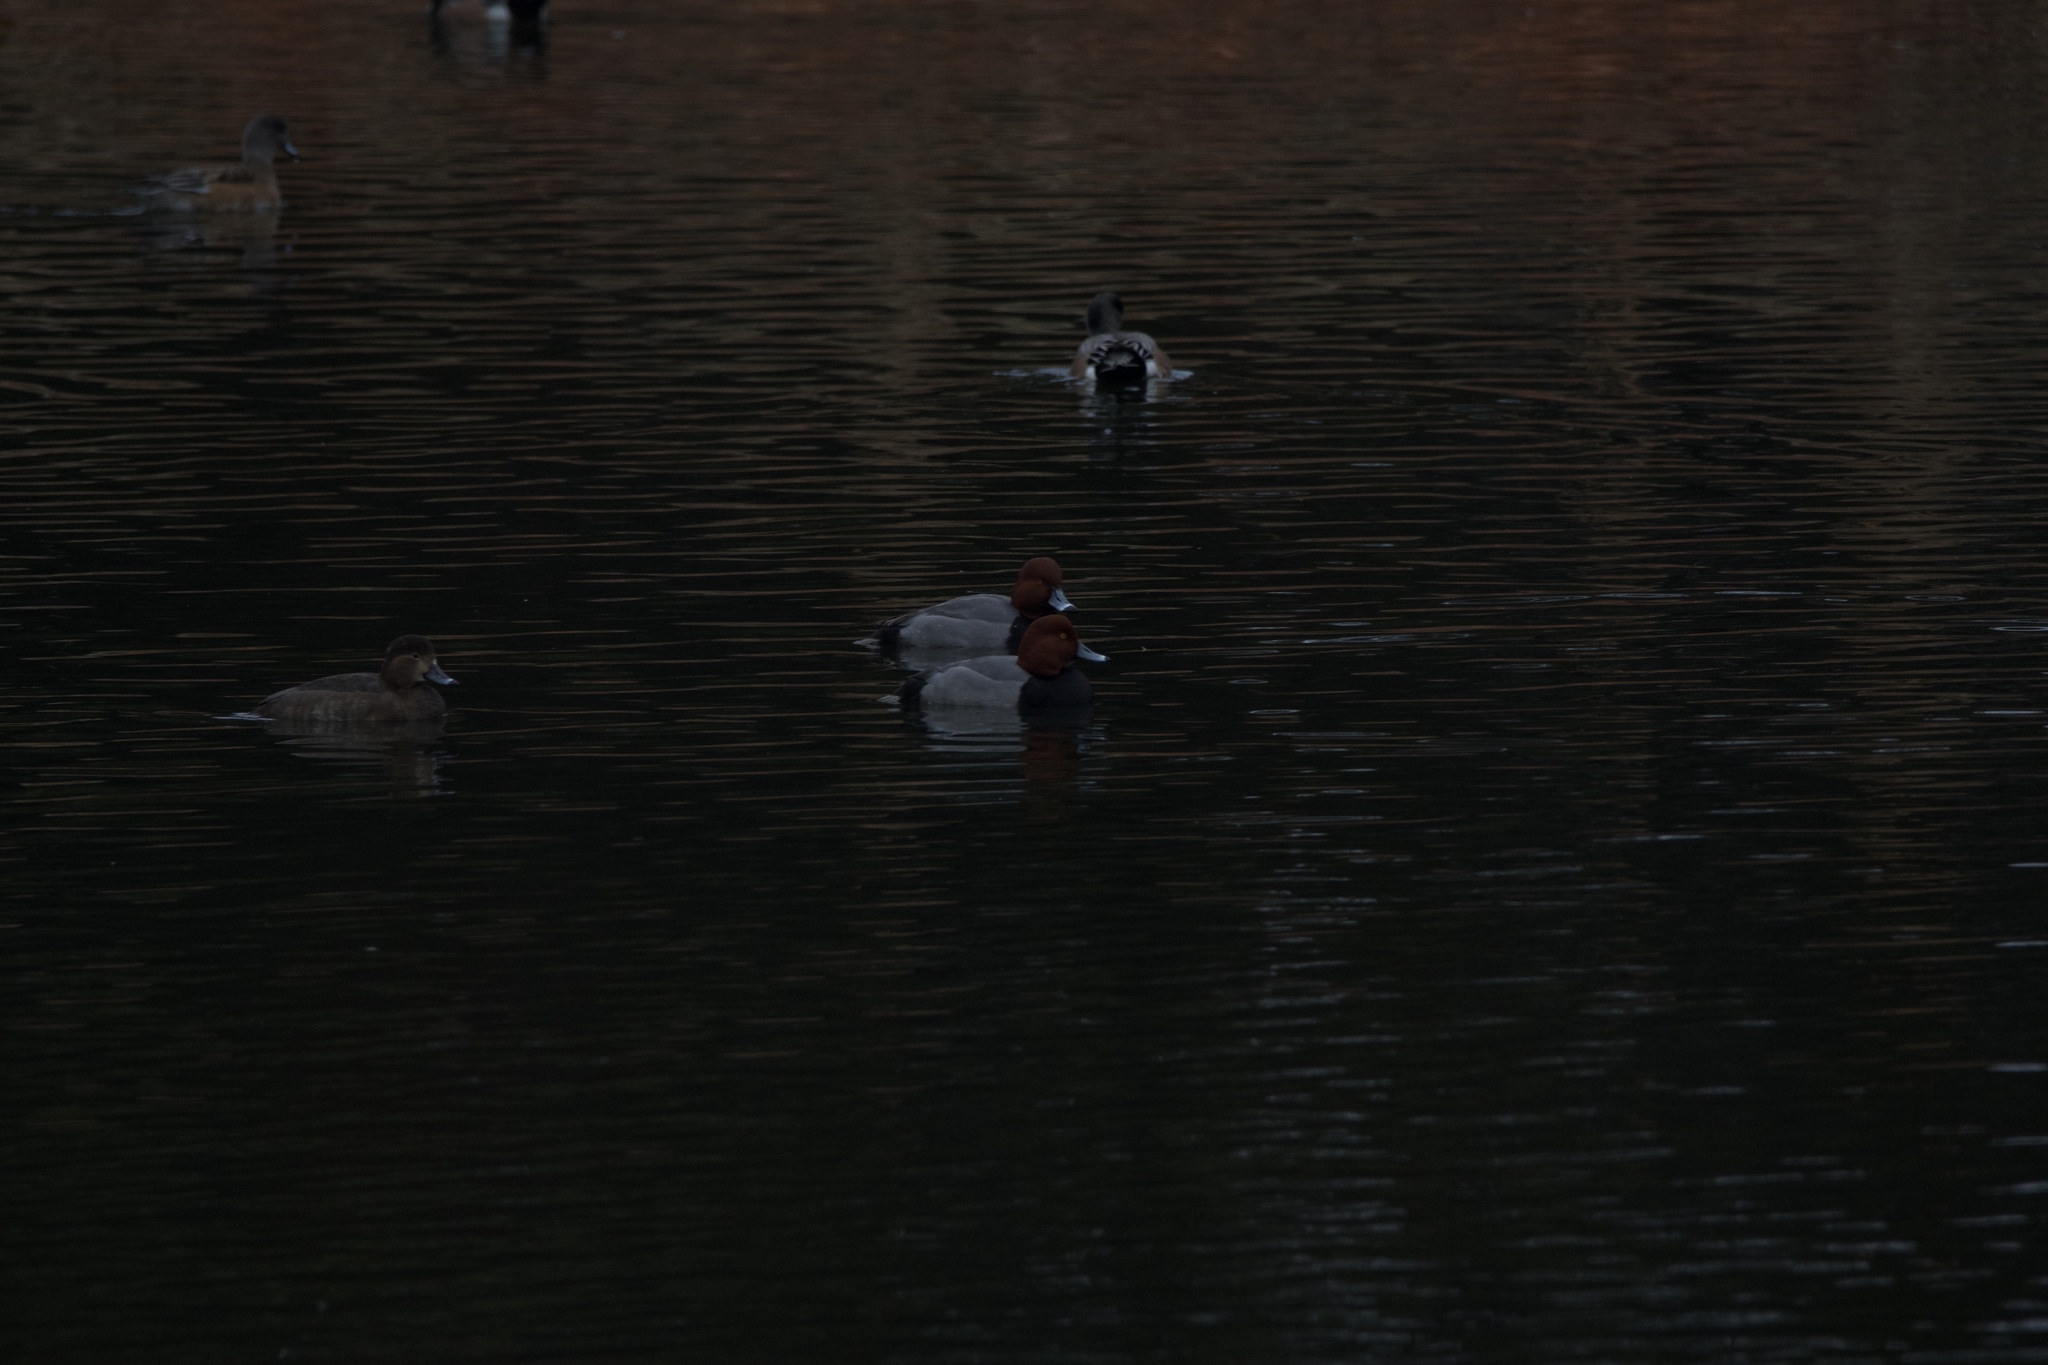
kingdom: Animalia
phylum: Chordata
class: Aves
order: Anseriformes
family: Anatidae
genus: Aythya
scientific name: Aythya americana
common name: Redhead
